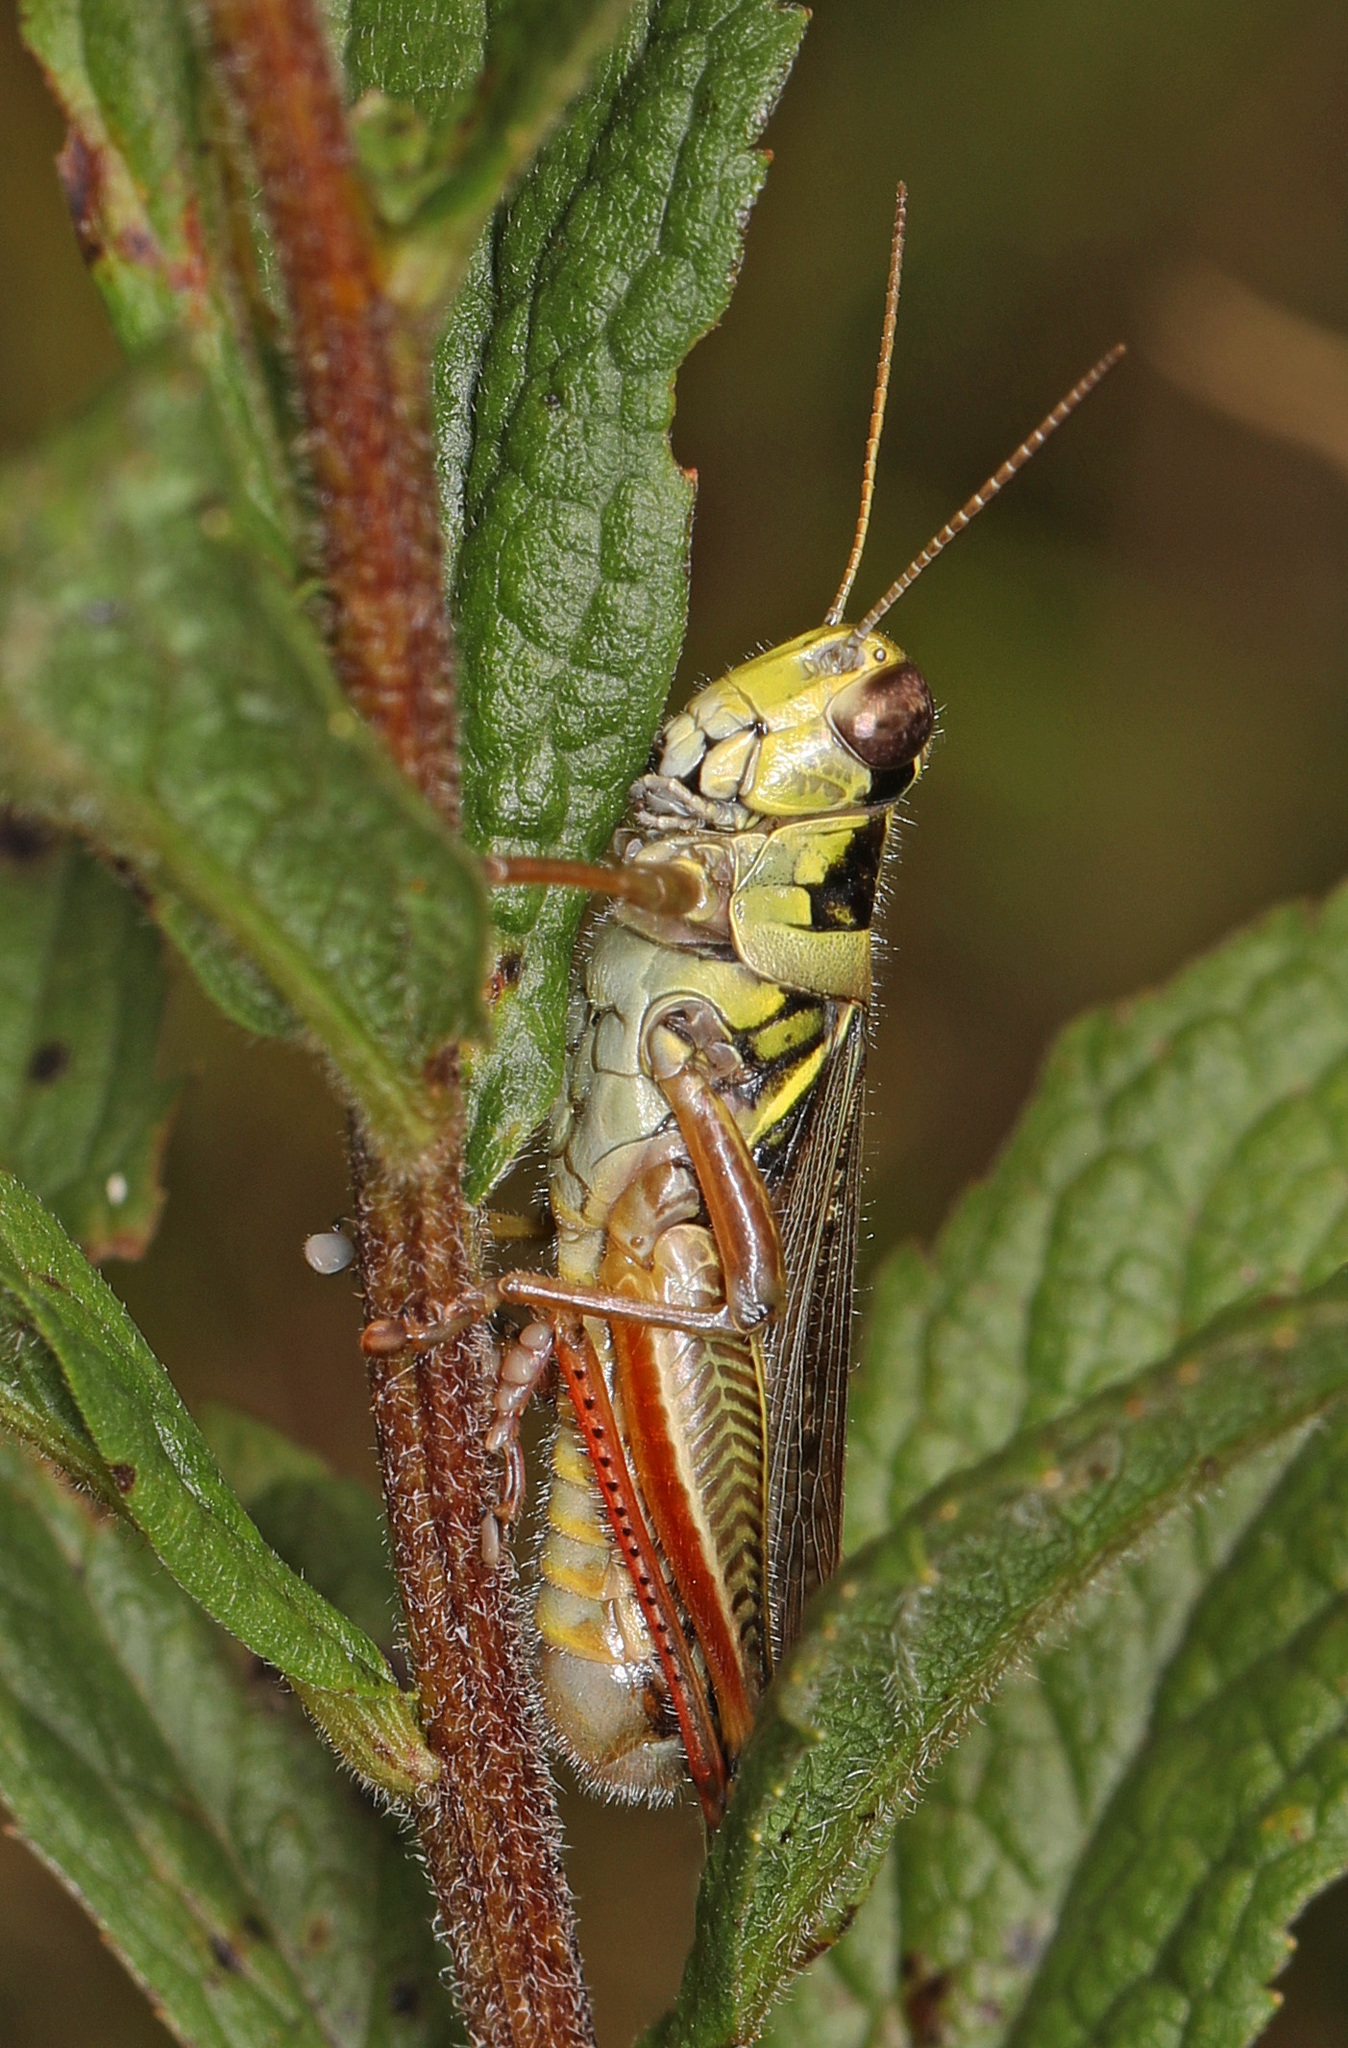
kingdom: Animalia
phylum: Arthropoda
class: Insecta
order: Orthoptera
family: Acrididae
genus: Melanoplus
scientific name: Melanoplus femurrubrum
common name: Red-legged grasshopper
